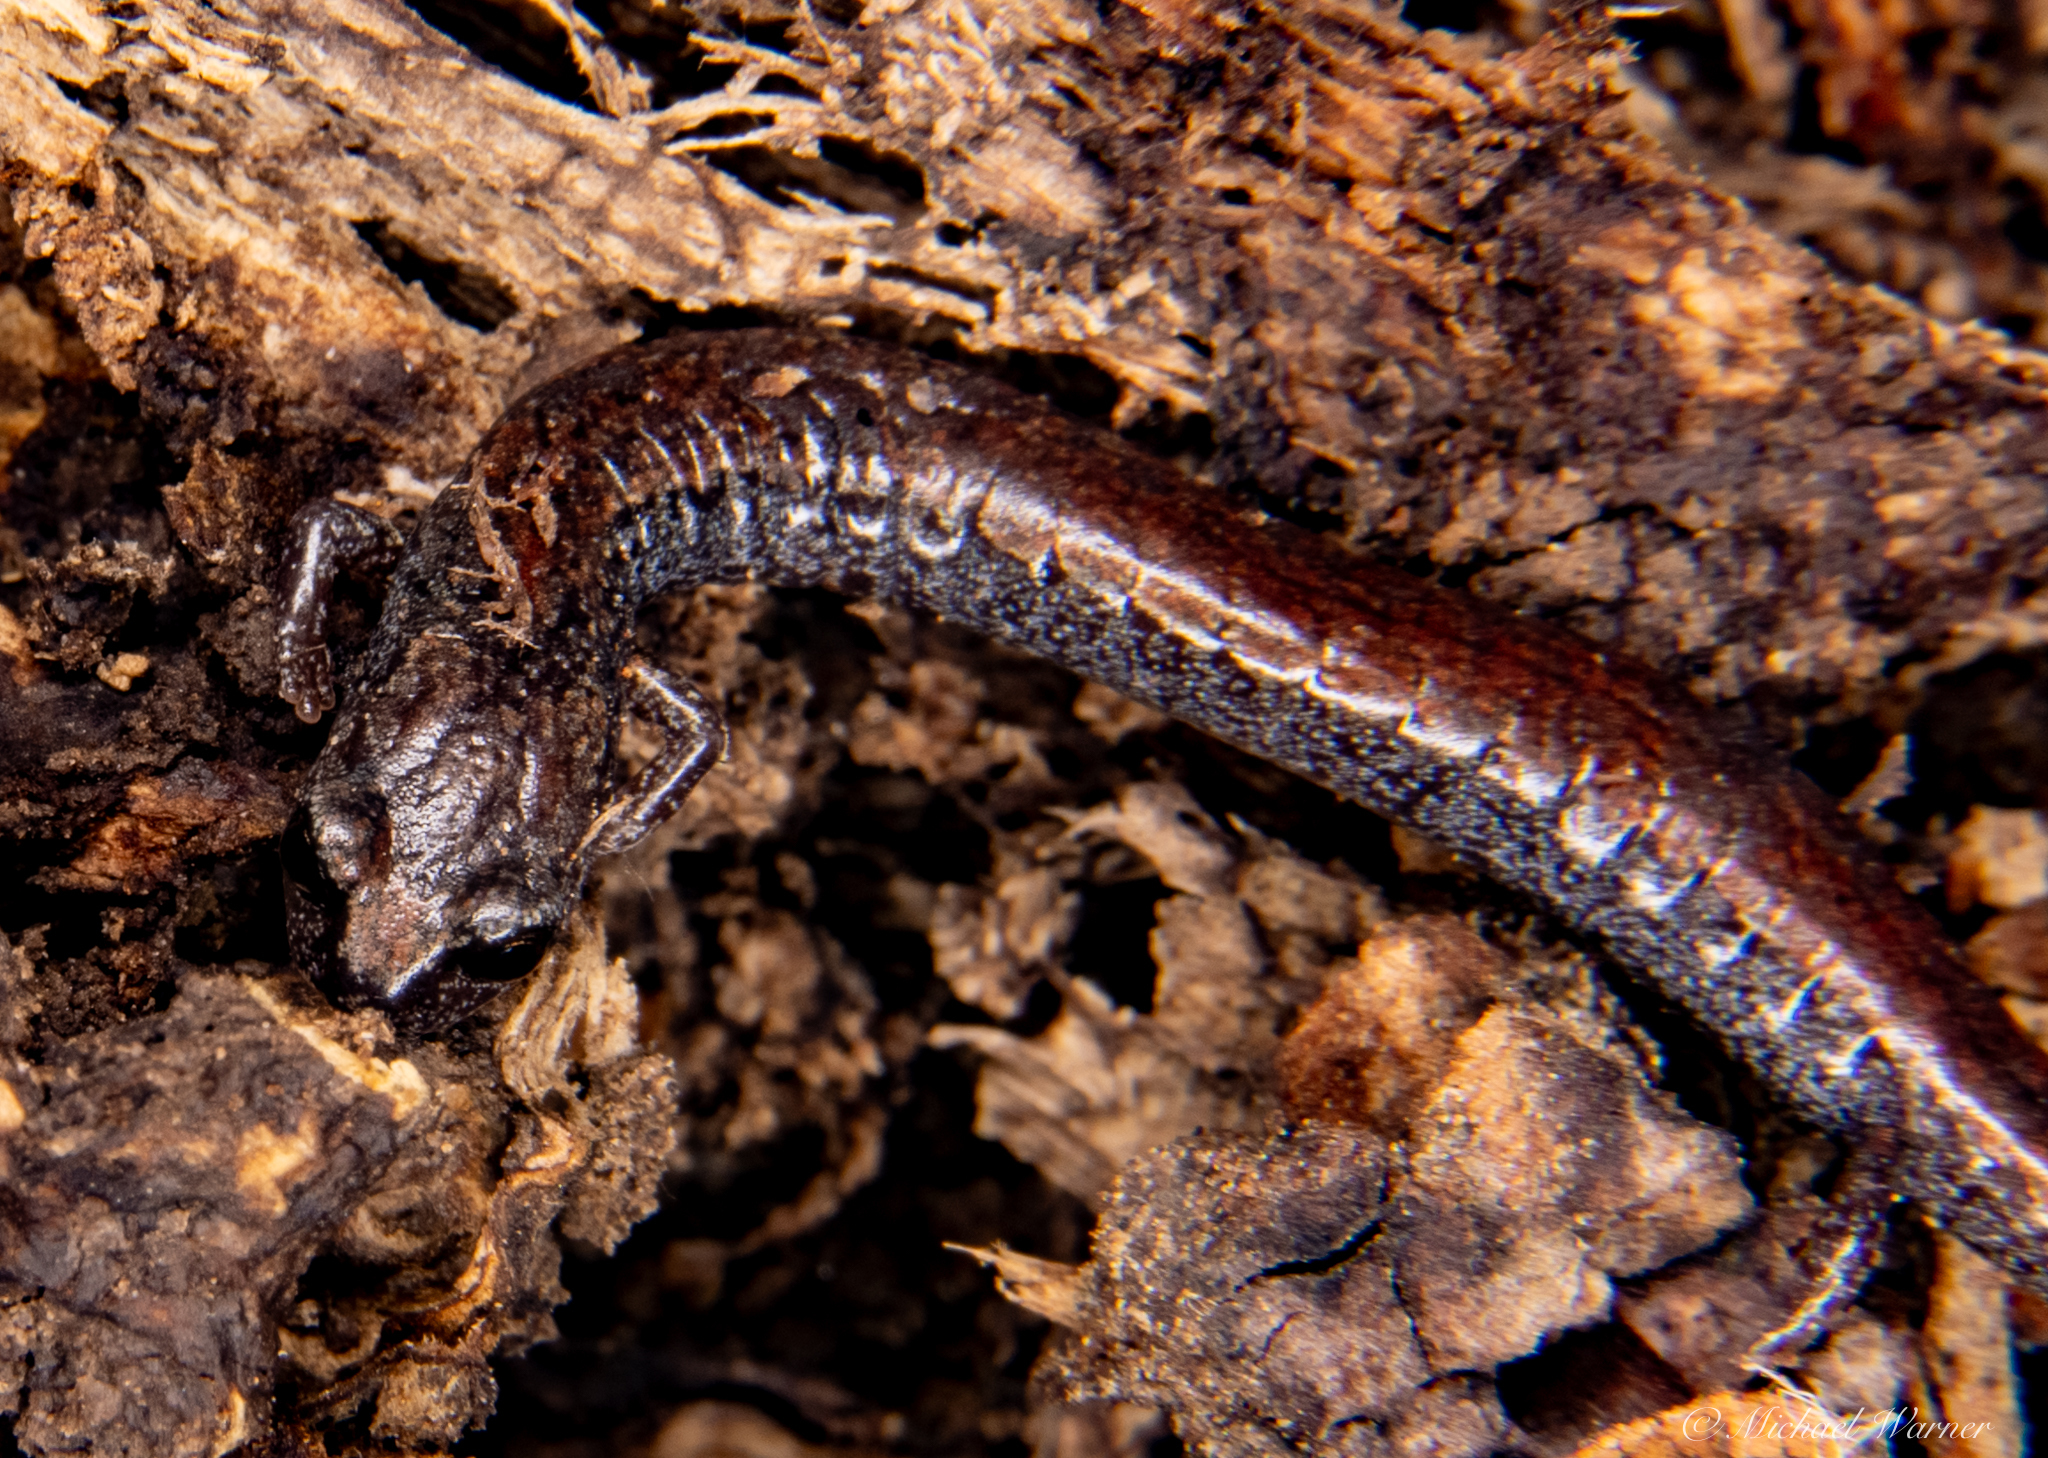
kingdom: Animalia
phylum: Chordata
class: Amphibia
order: Caudata
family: Plethodontidae
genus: Batrachoseps
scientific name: Batrachoseps attenuatus
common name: California slender salamander
